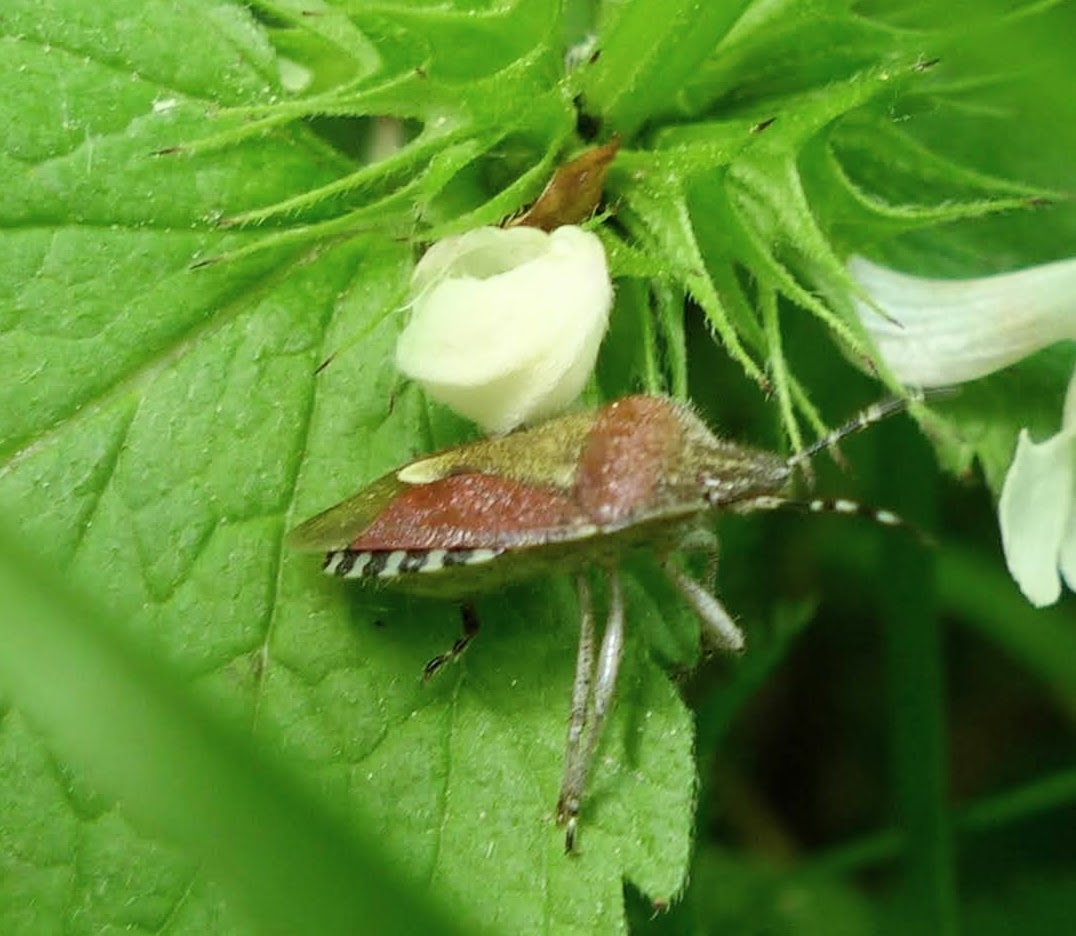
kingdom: Animalia
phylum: Arthropoda
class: Insecta
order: Hemiptera
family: Pentatomidae
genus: Dolycoris
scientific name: Dolycoris baccarum
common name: Sloe bug
